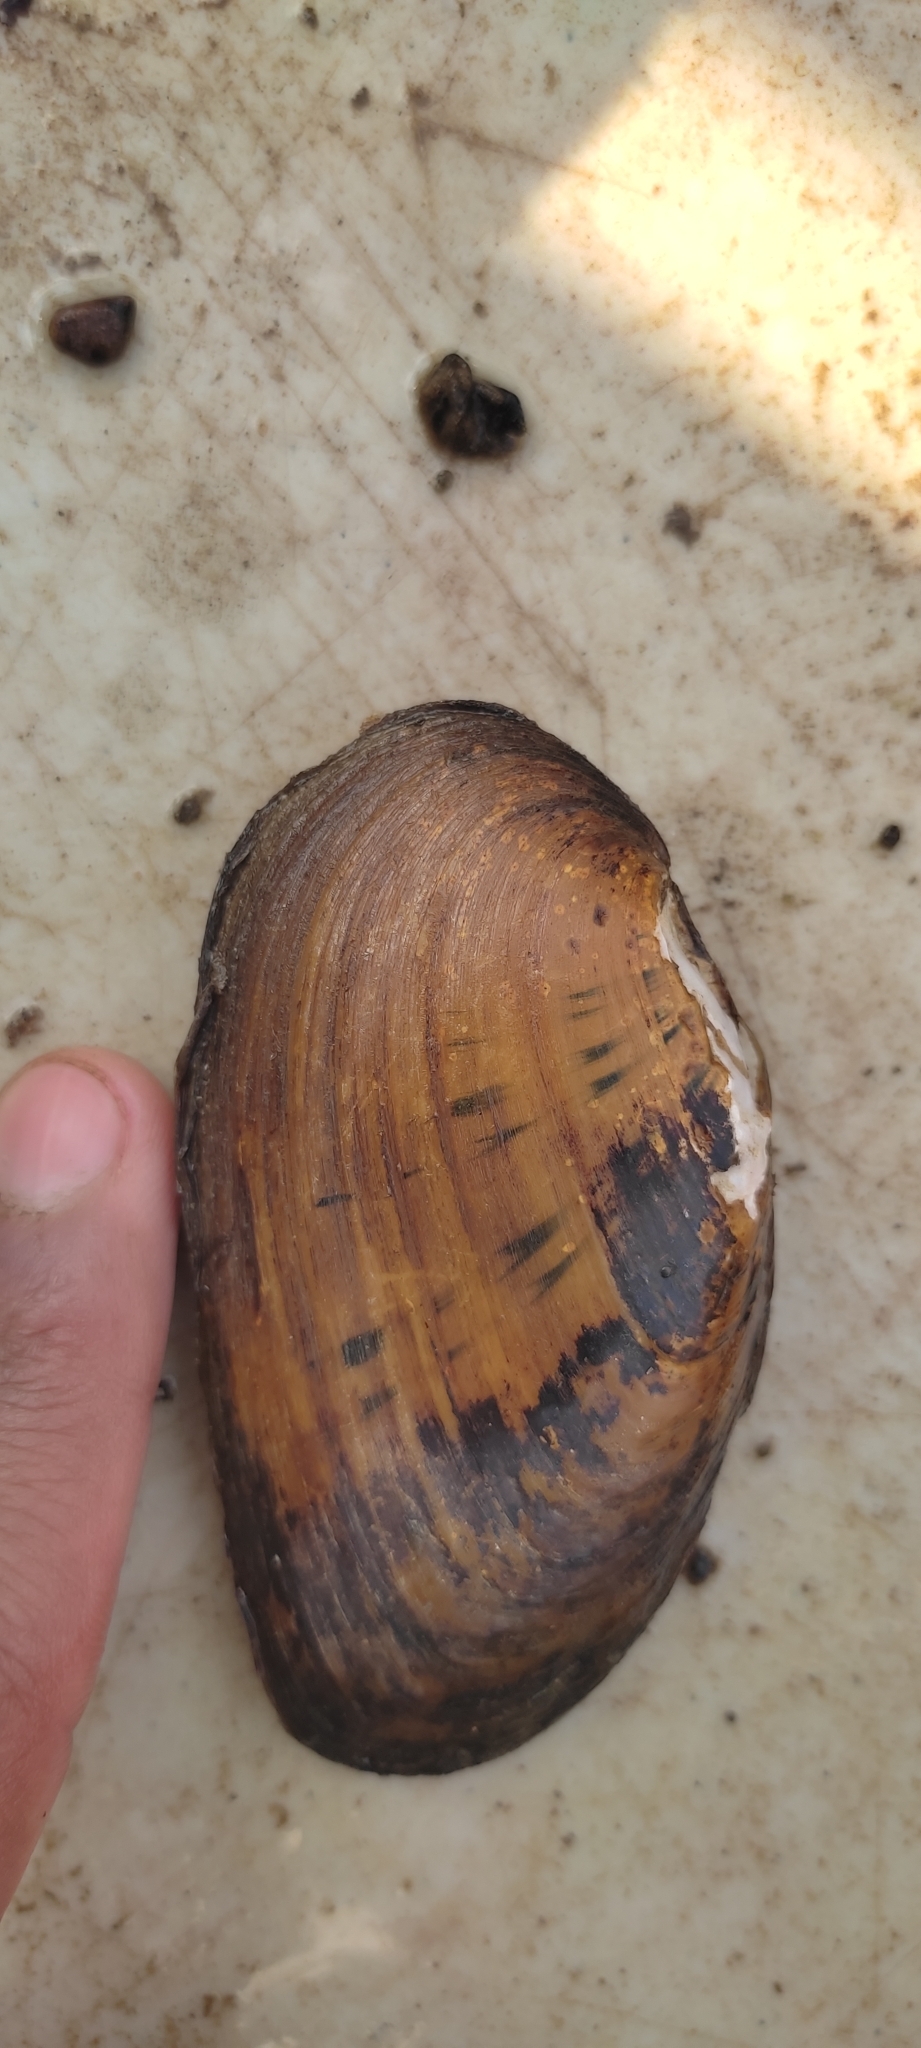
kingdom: Animalia
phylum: Mollusca
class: Bivalvia
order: Unionida
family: Unionidae
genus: Ptychobranchus
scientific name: Ptychobranchus fasciolaris
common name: Kidneyshell
